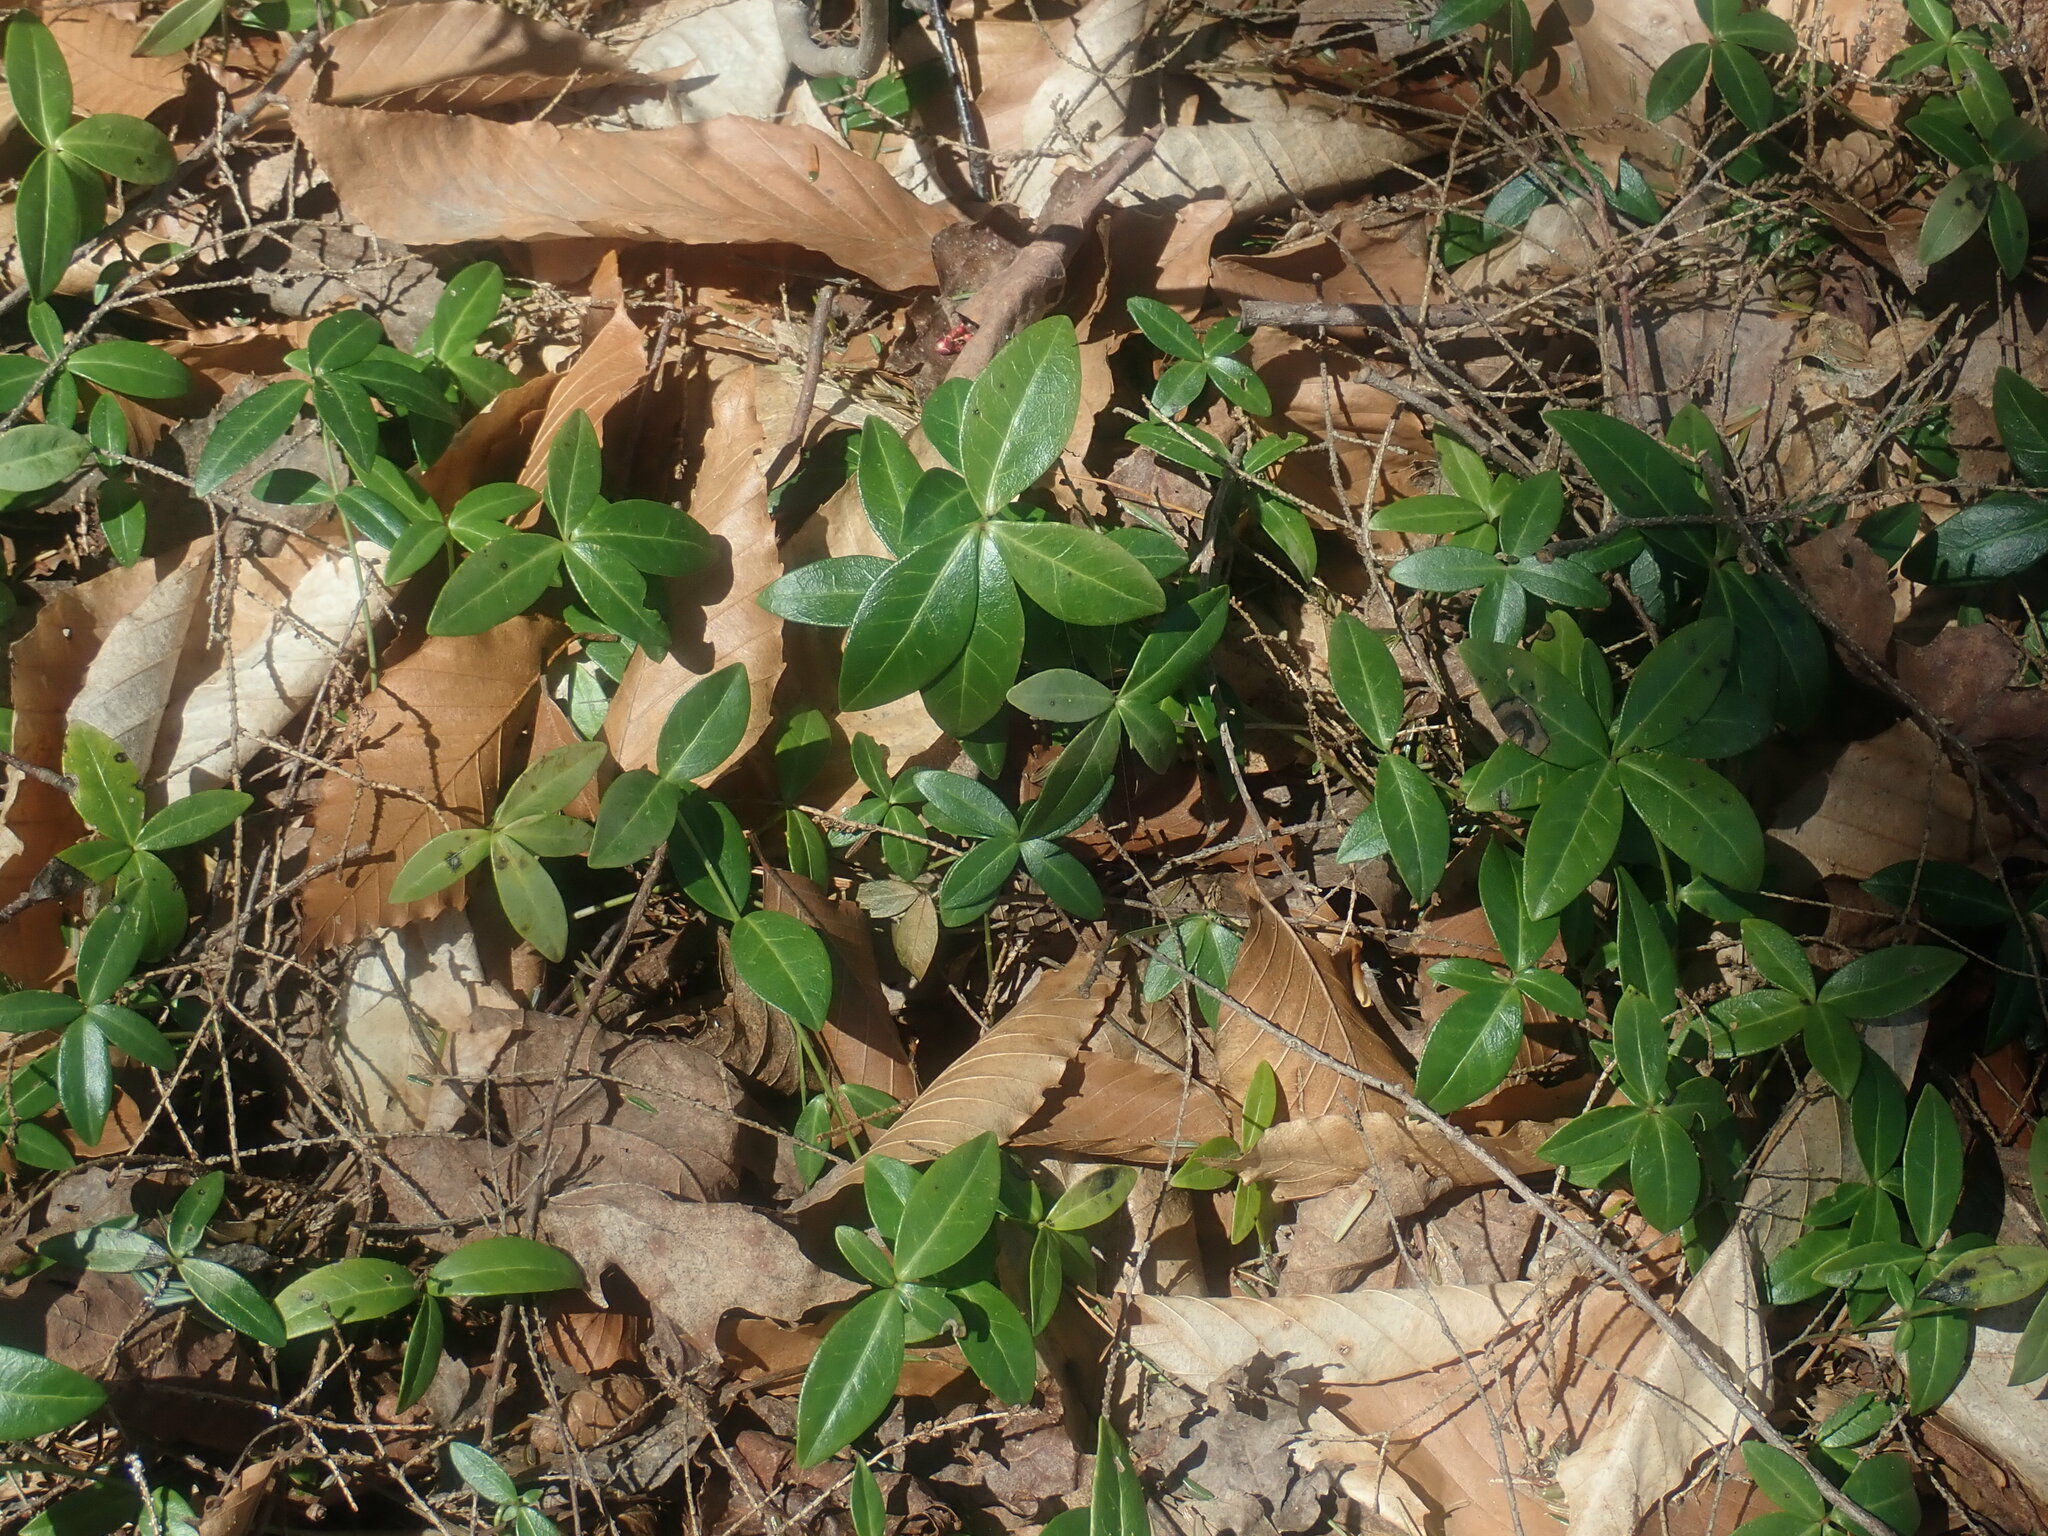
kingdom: Plantae
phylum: Tracheophyta
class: Magnoliopsida
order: Gentianales
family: Apocynaceae
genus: Vinca
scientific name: Vinca minor
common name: Lesser periwinkle
